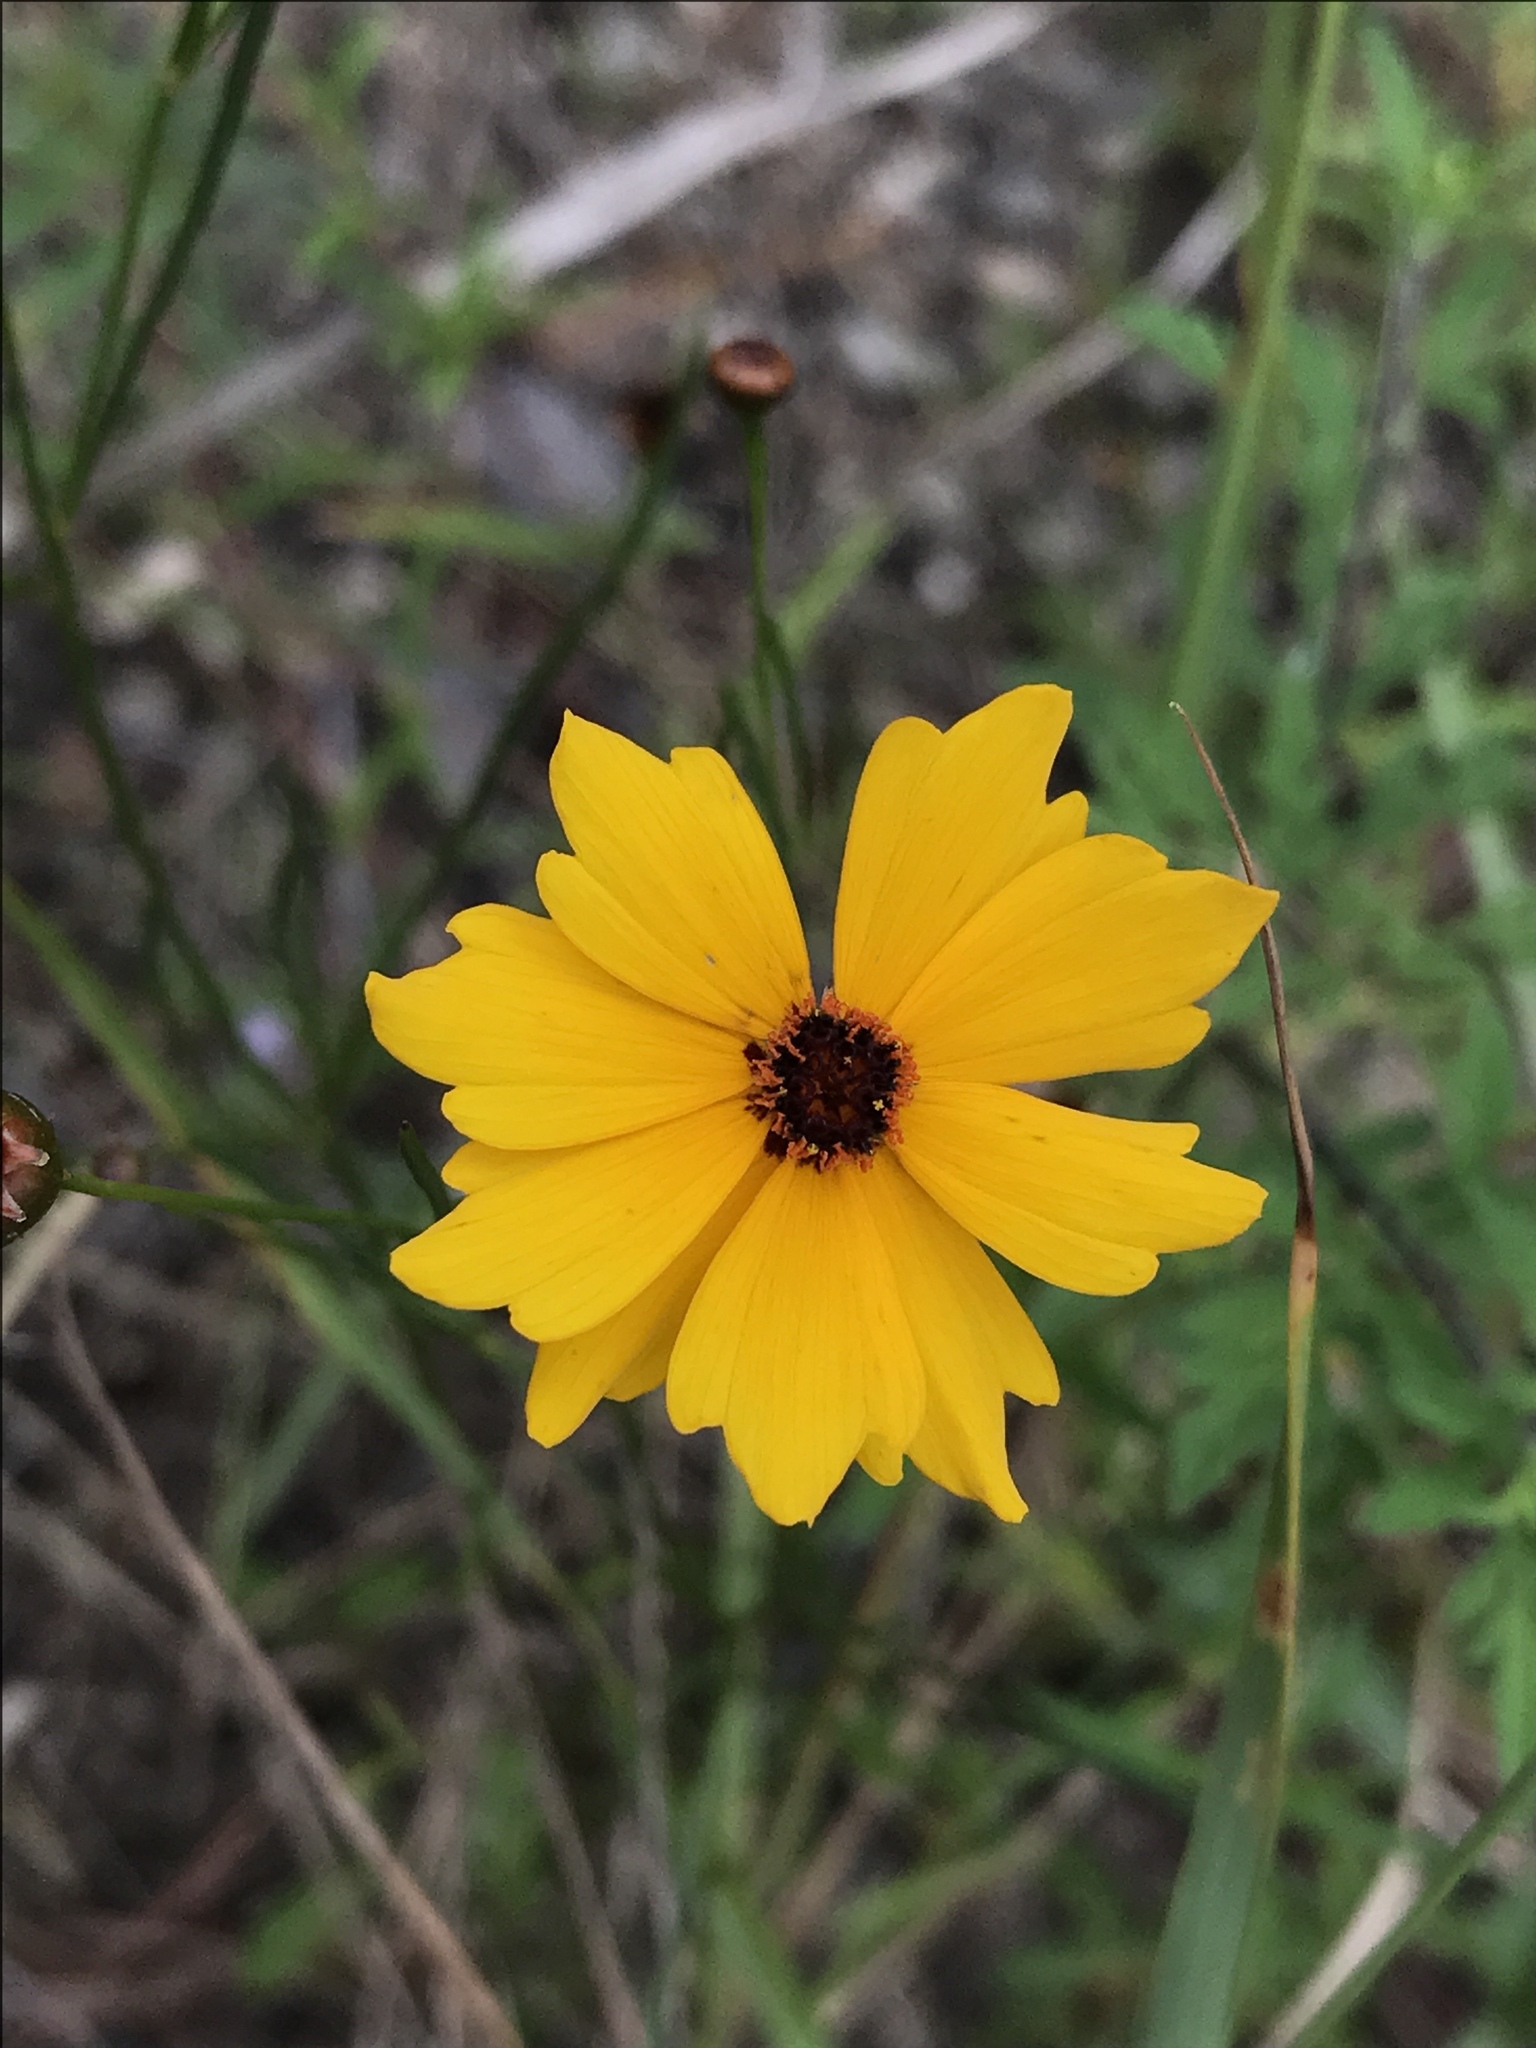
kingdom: Plantae
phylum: Tracheophyta
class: Magnoliopsida
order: Asterales
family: Asteraceae
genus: Thelesperma
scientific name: Thelesperma filifolium
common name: Stiff greenthread
